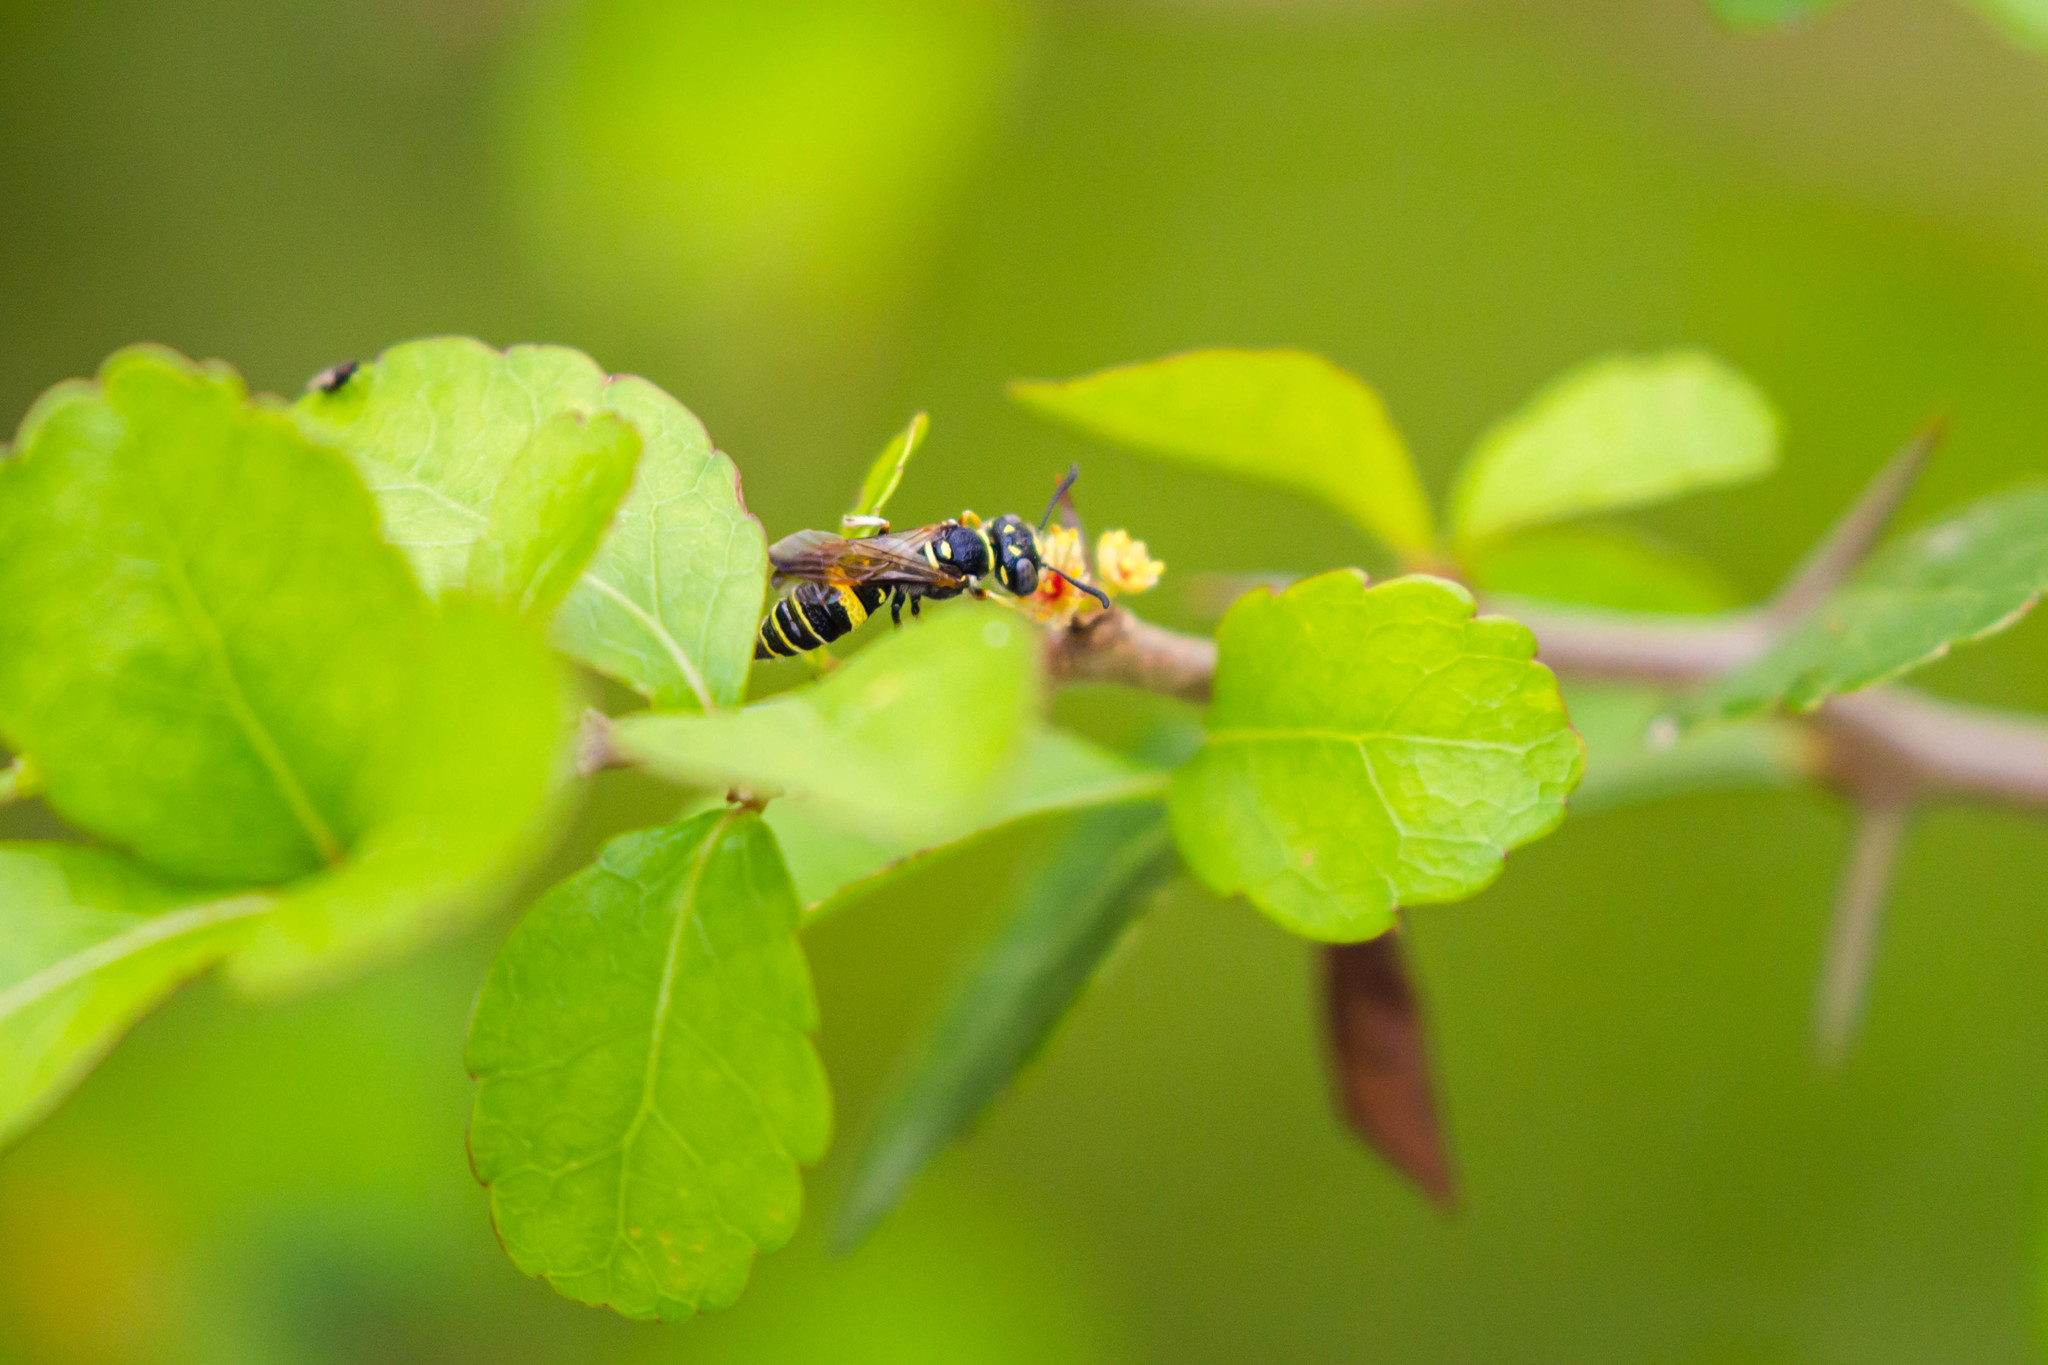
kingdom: Animalia
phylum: Arthropoda
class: Insecta
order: Hymenoptera
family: Crabronidae
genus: Philanthus
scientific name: Philanthus gibbosus
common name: Humped beewolf
